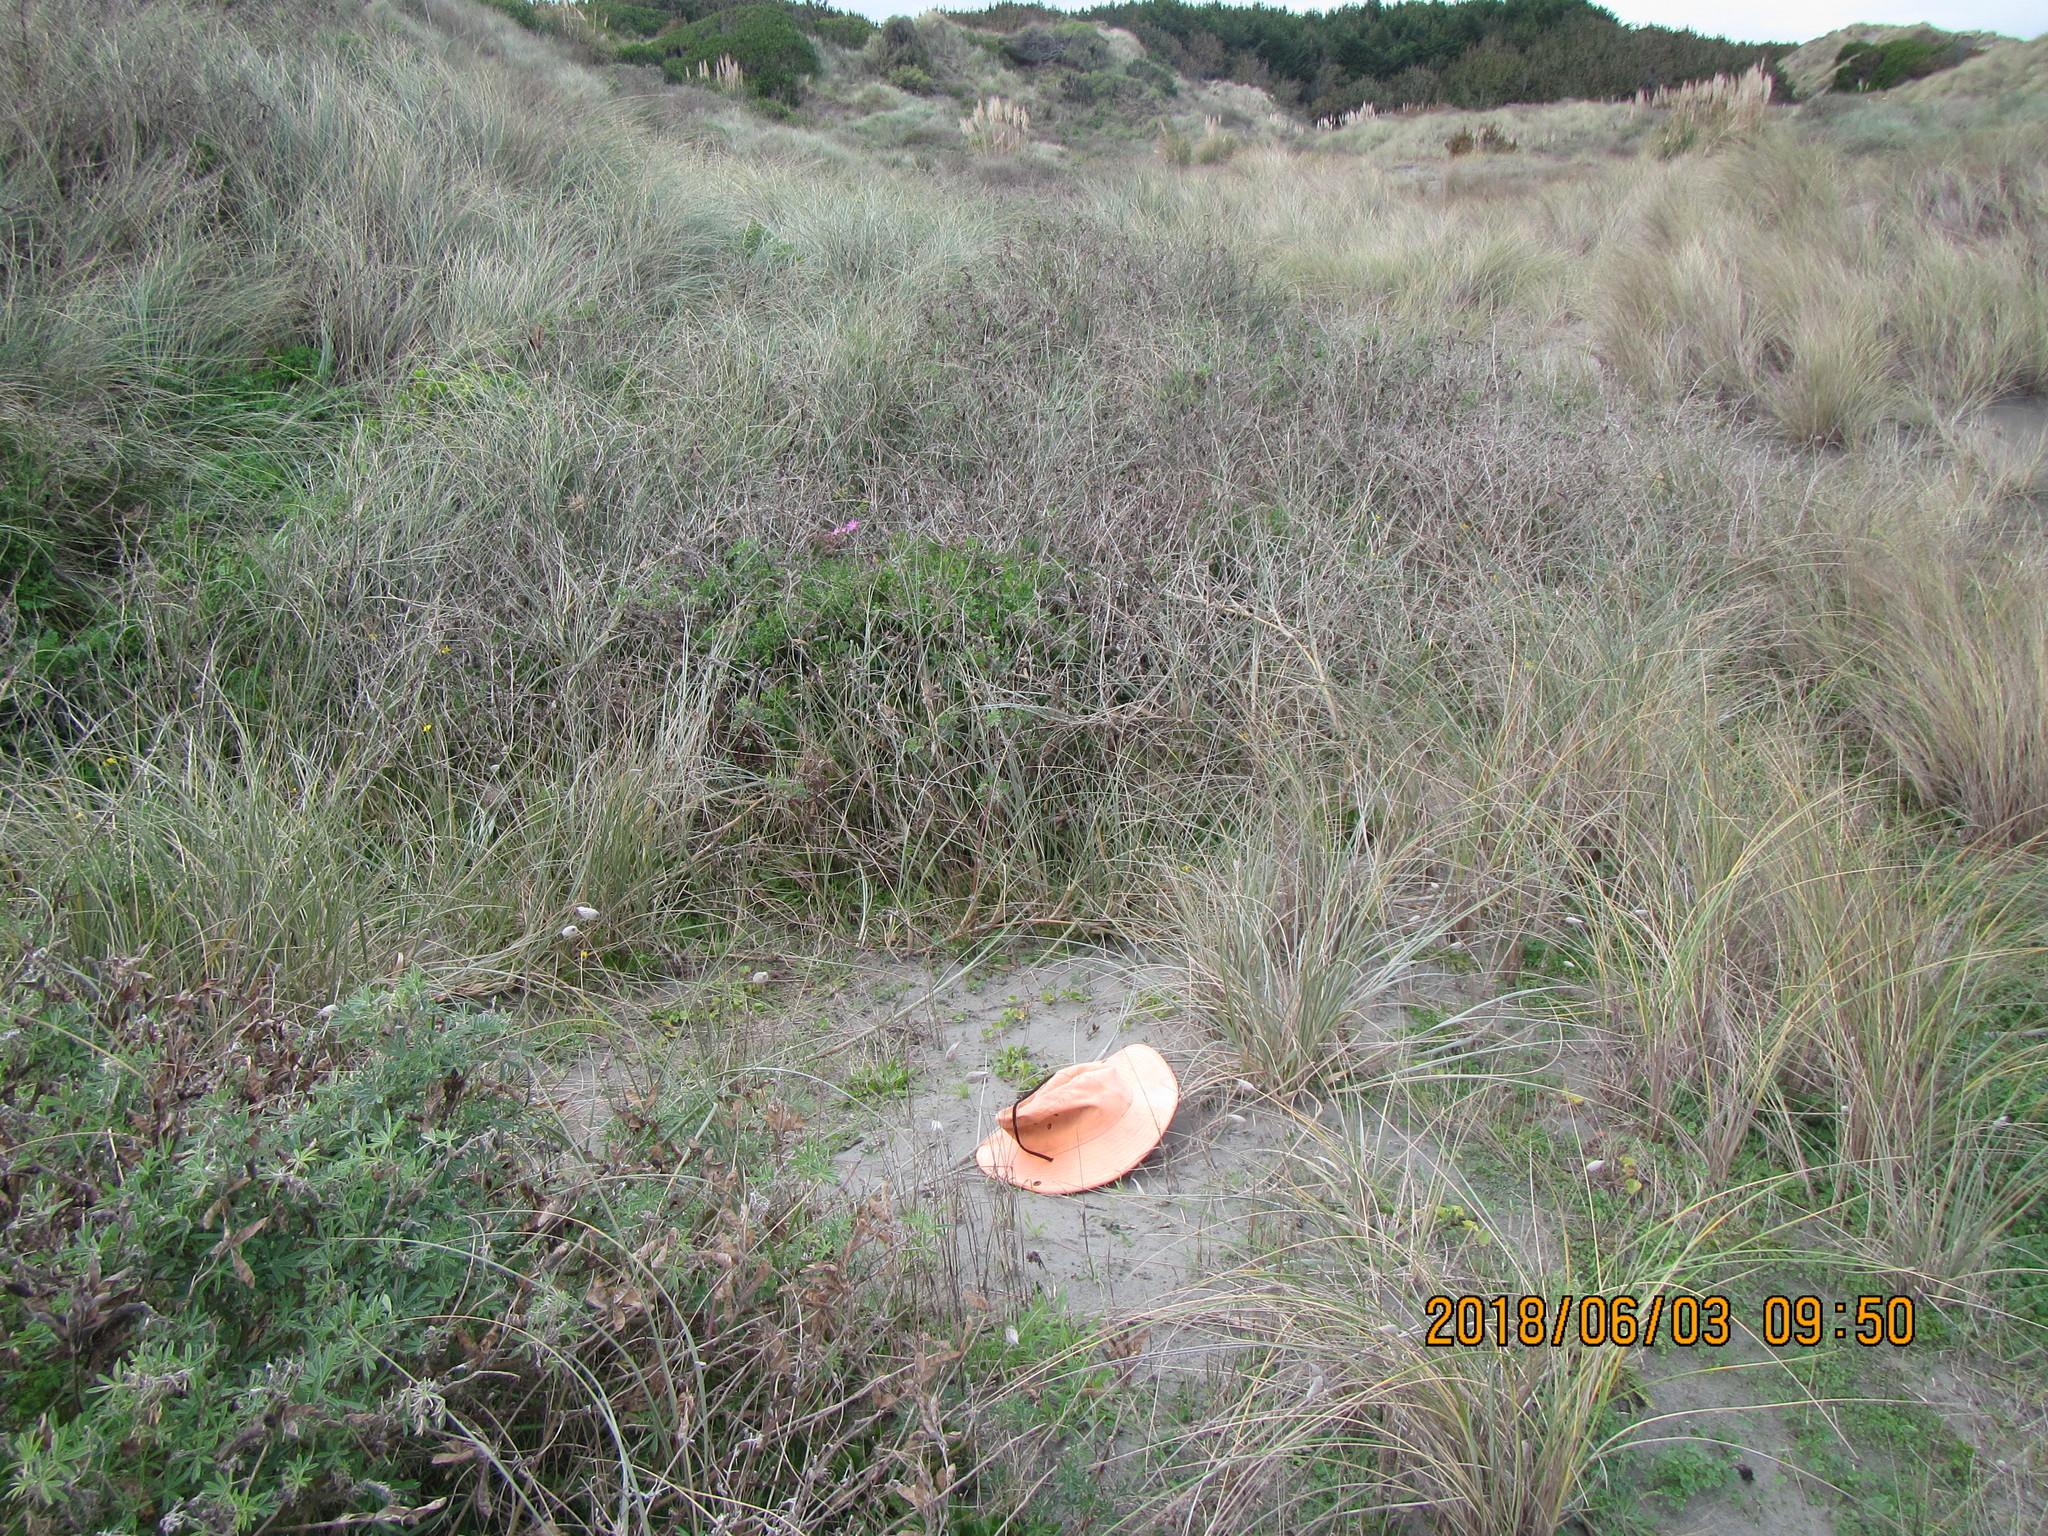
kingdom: Plantae
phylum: Tracheophyta
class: Magnoliopsida
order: Solanales
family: Convolvulaceae
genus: Calystegia
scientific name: Calystegia soldanella
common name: Sea bindweed
